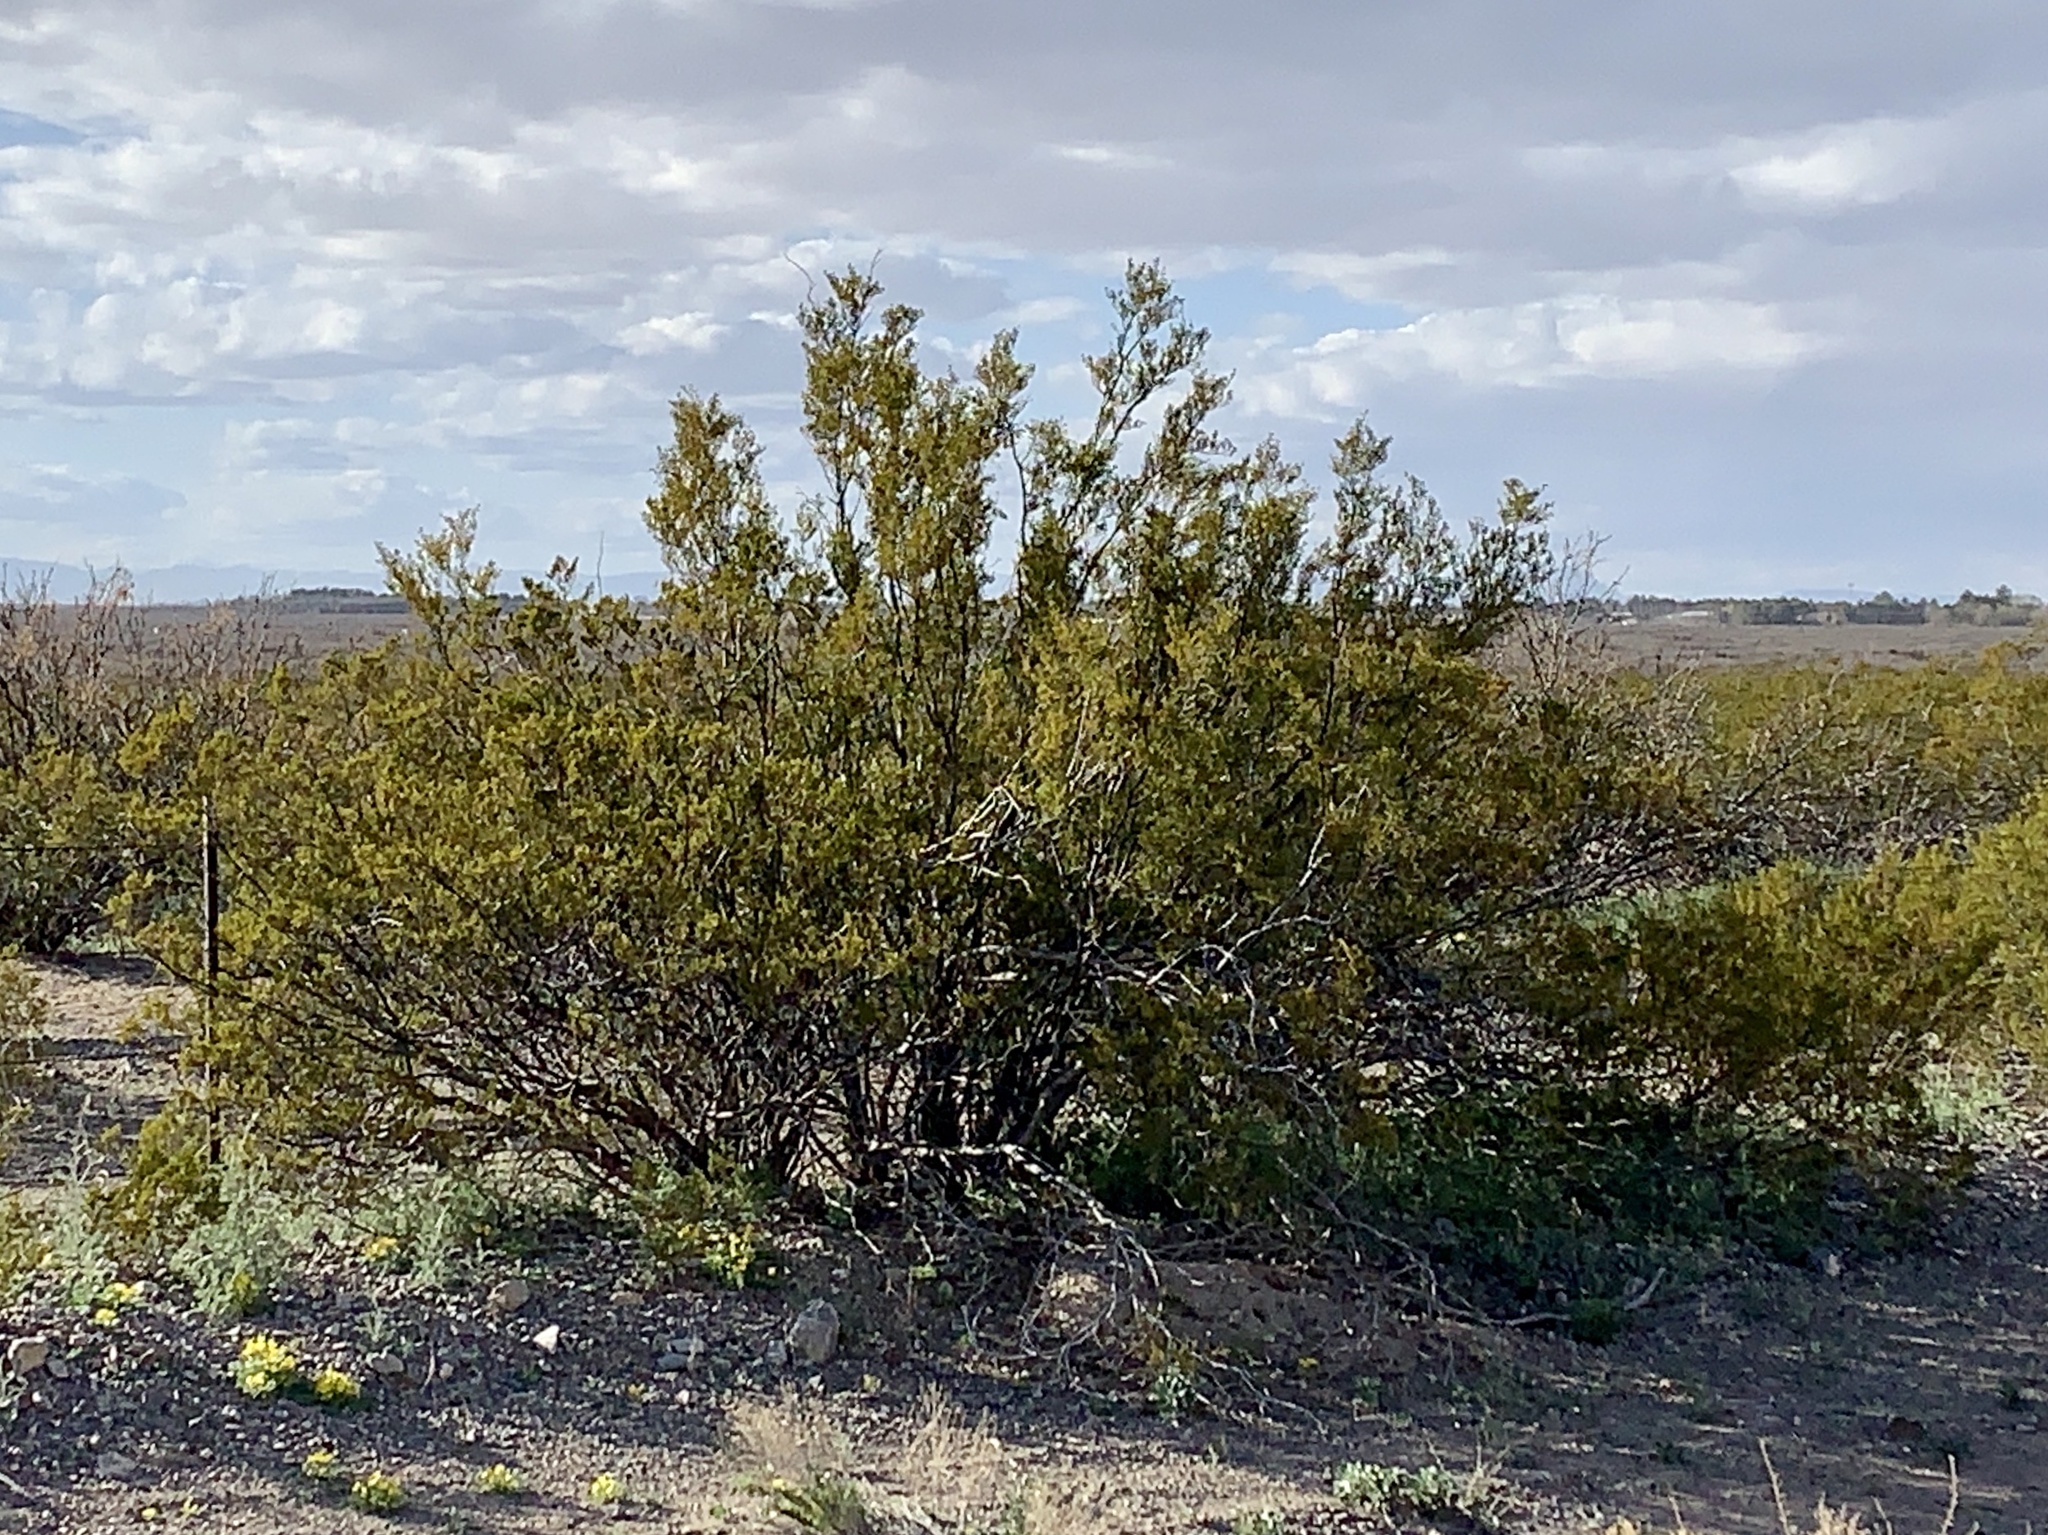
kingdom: Plantae
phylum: Tracheophyta
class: Magnoliopsida
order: Zygophyllales
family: Zygophyllaceae
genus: Larrea
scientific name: Larrea tridentata
